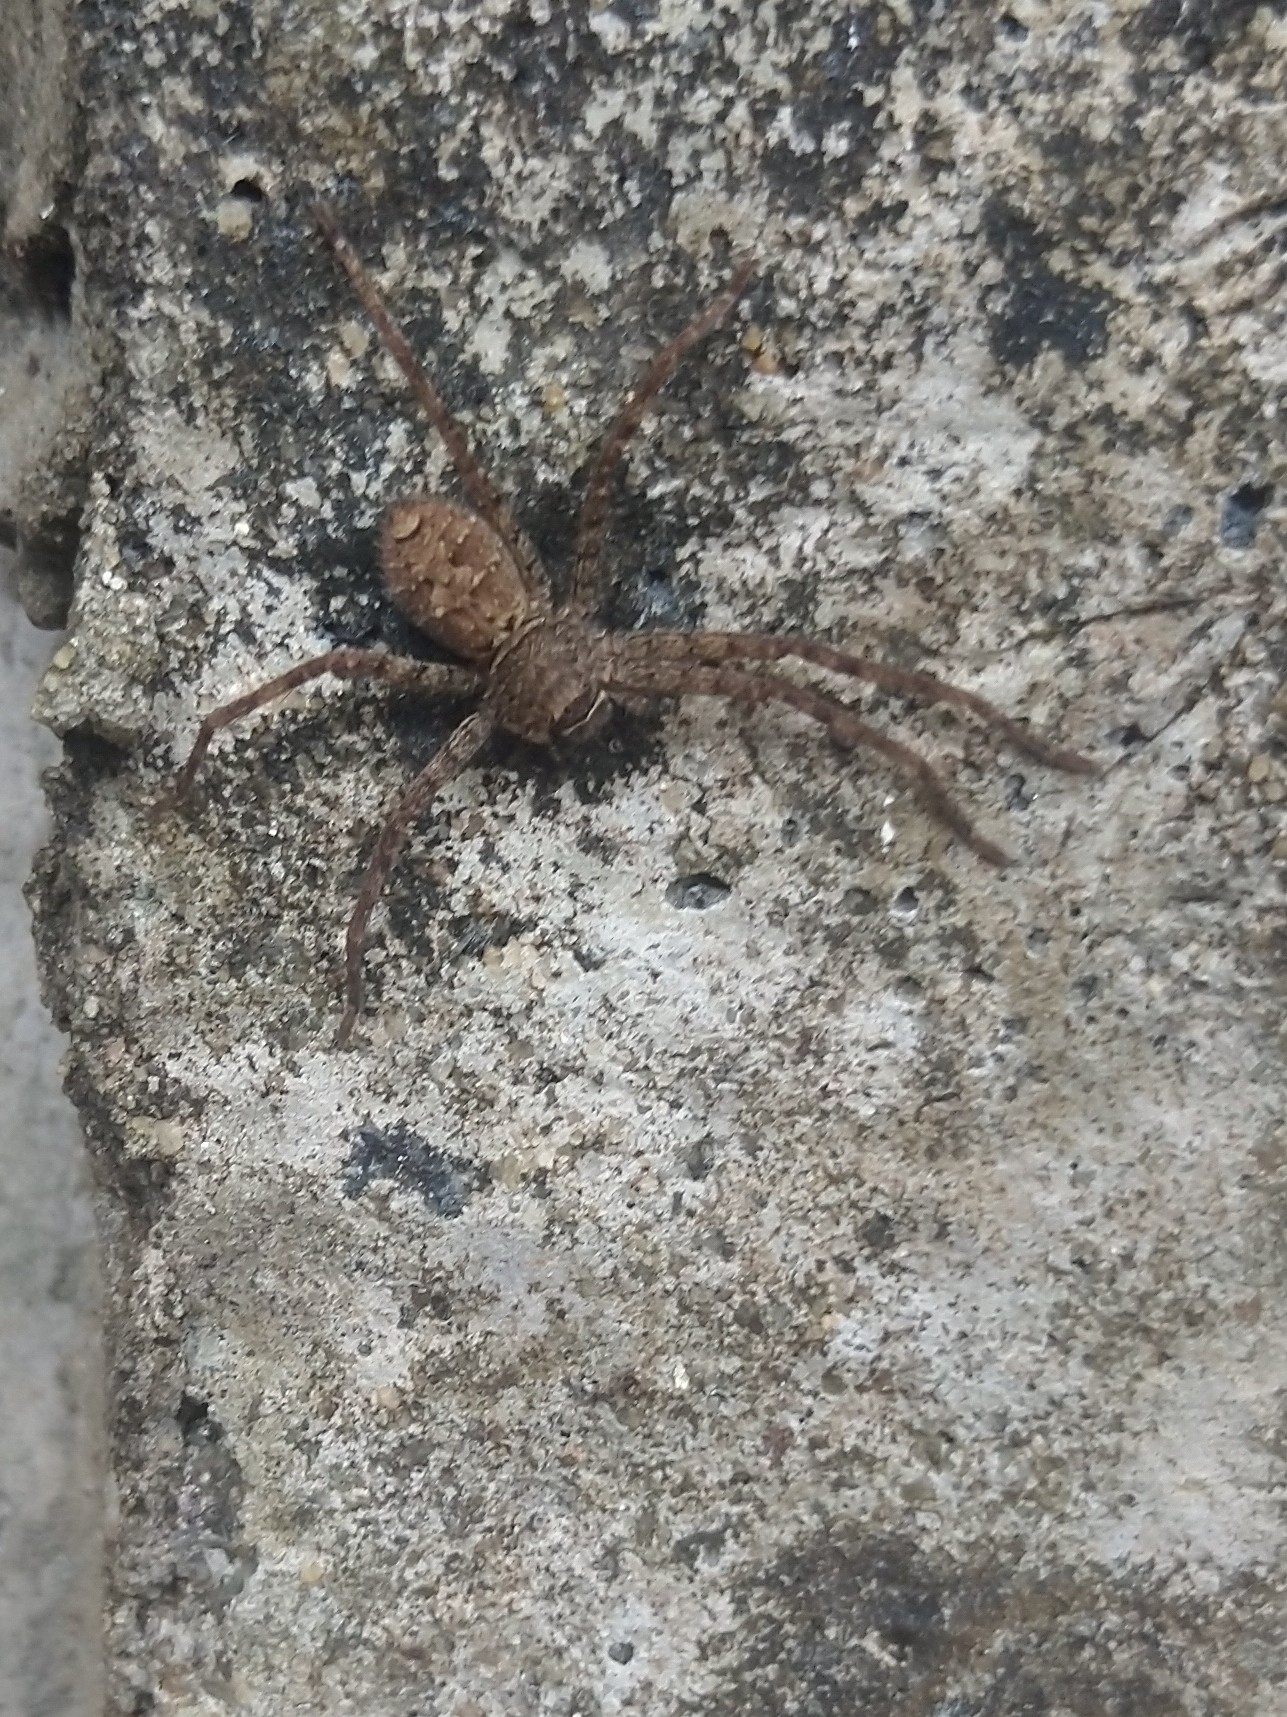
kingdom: Animalia
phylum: Arthropoda
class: Arachnida
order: Araneae
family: Sparassidae
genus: Heteropoda
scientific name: Heteropoda venatoria
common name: Huntsman spider
